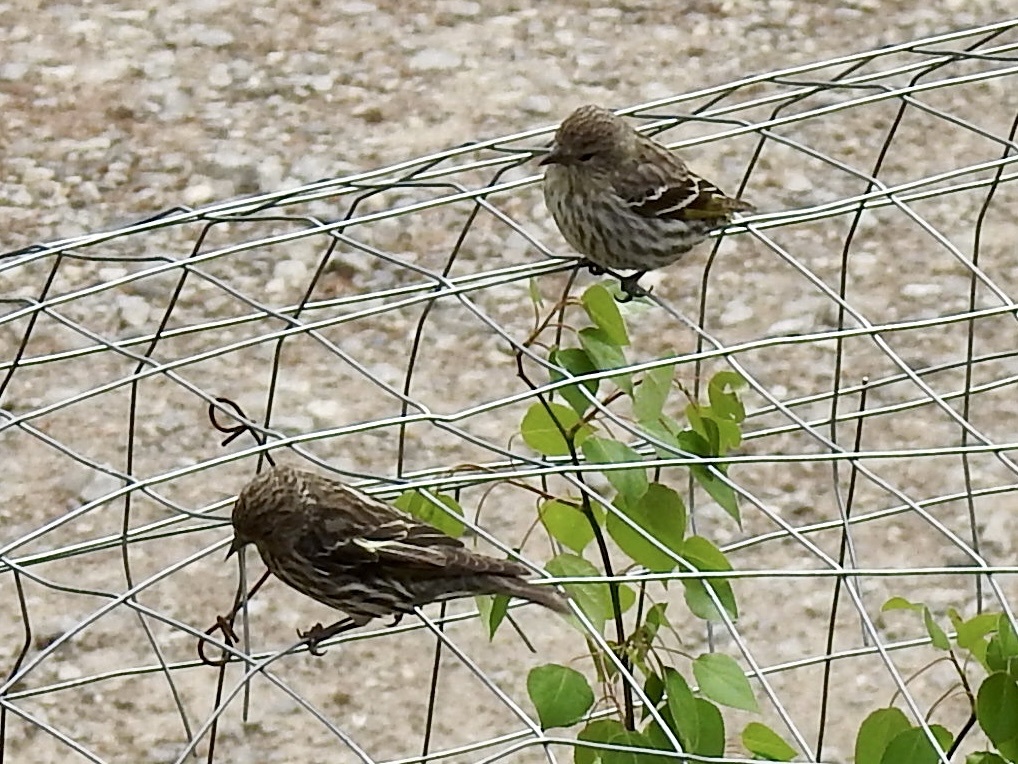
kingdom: Animalia
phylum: Chordata
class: Aves
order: Passeriformes
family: Fringillidae
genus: Spinus
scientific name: Spinus pinus
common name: Pine siskin
